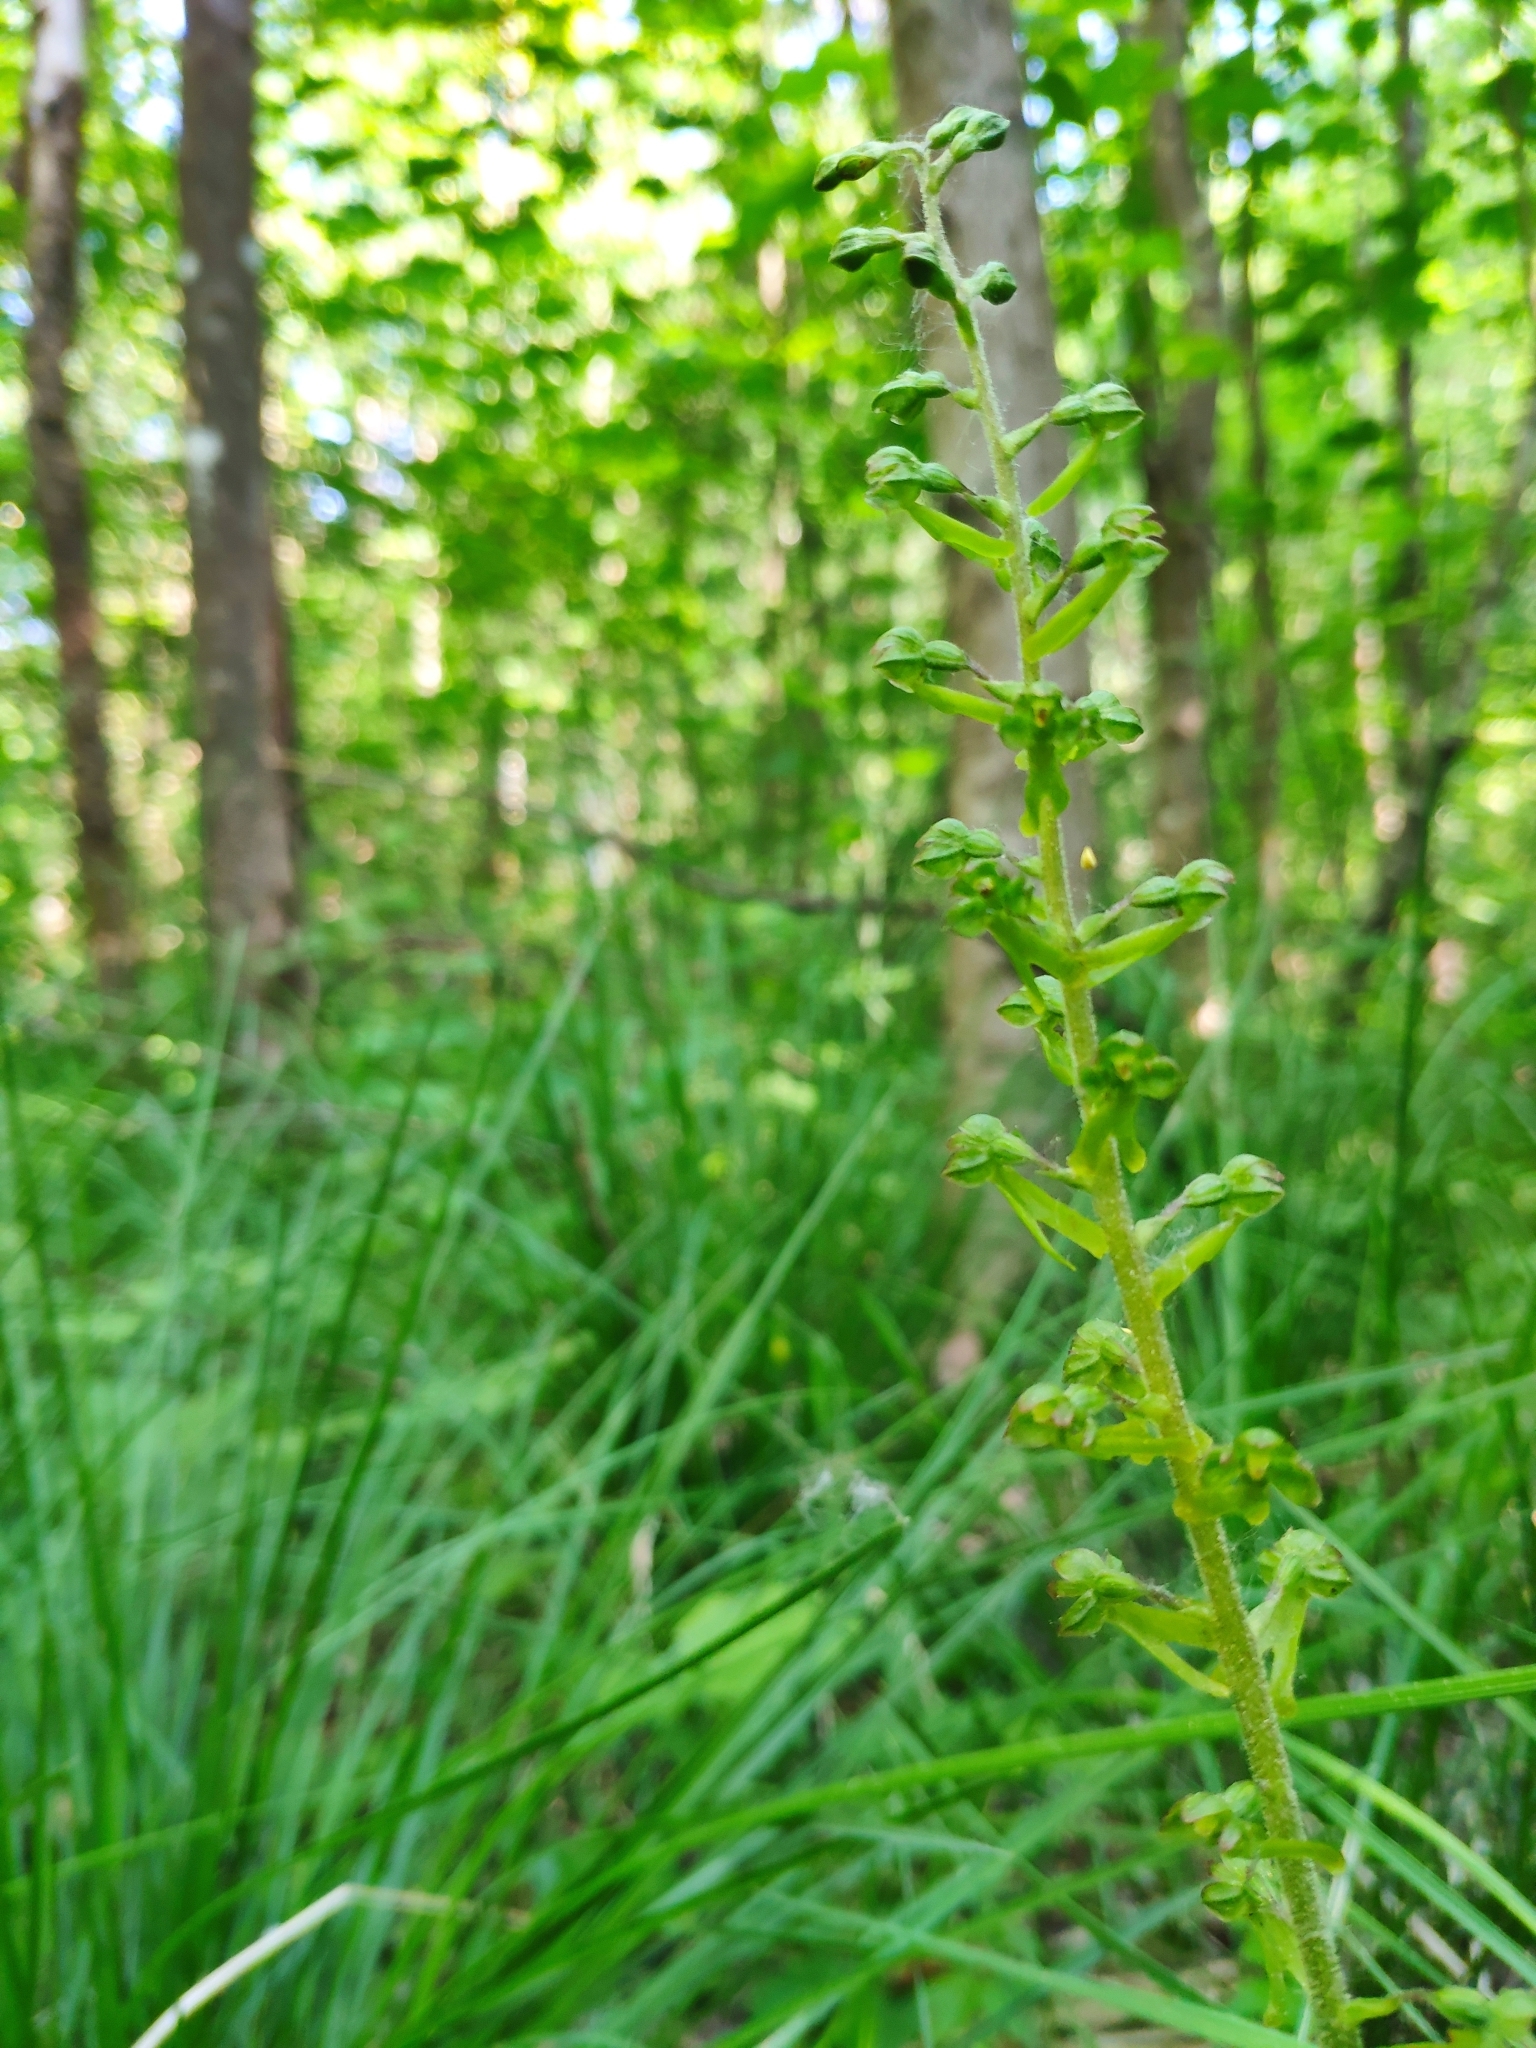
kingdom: Plantae
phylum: Tracheophyta
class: Liliopsida
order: Asparagales
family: Orchidaceae
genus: Neottia
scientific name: Neottia ovata
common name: Common twayblade
